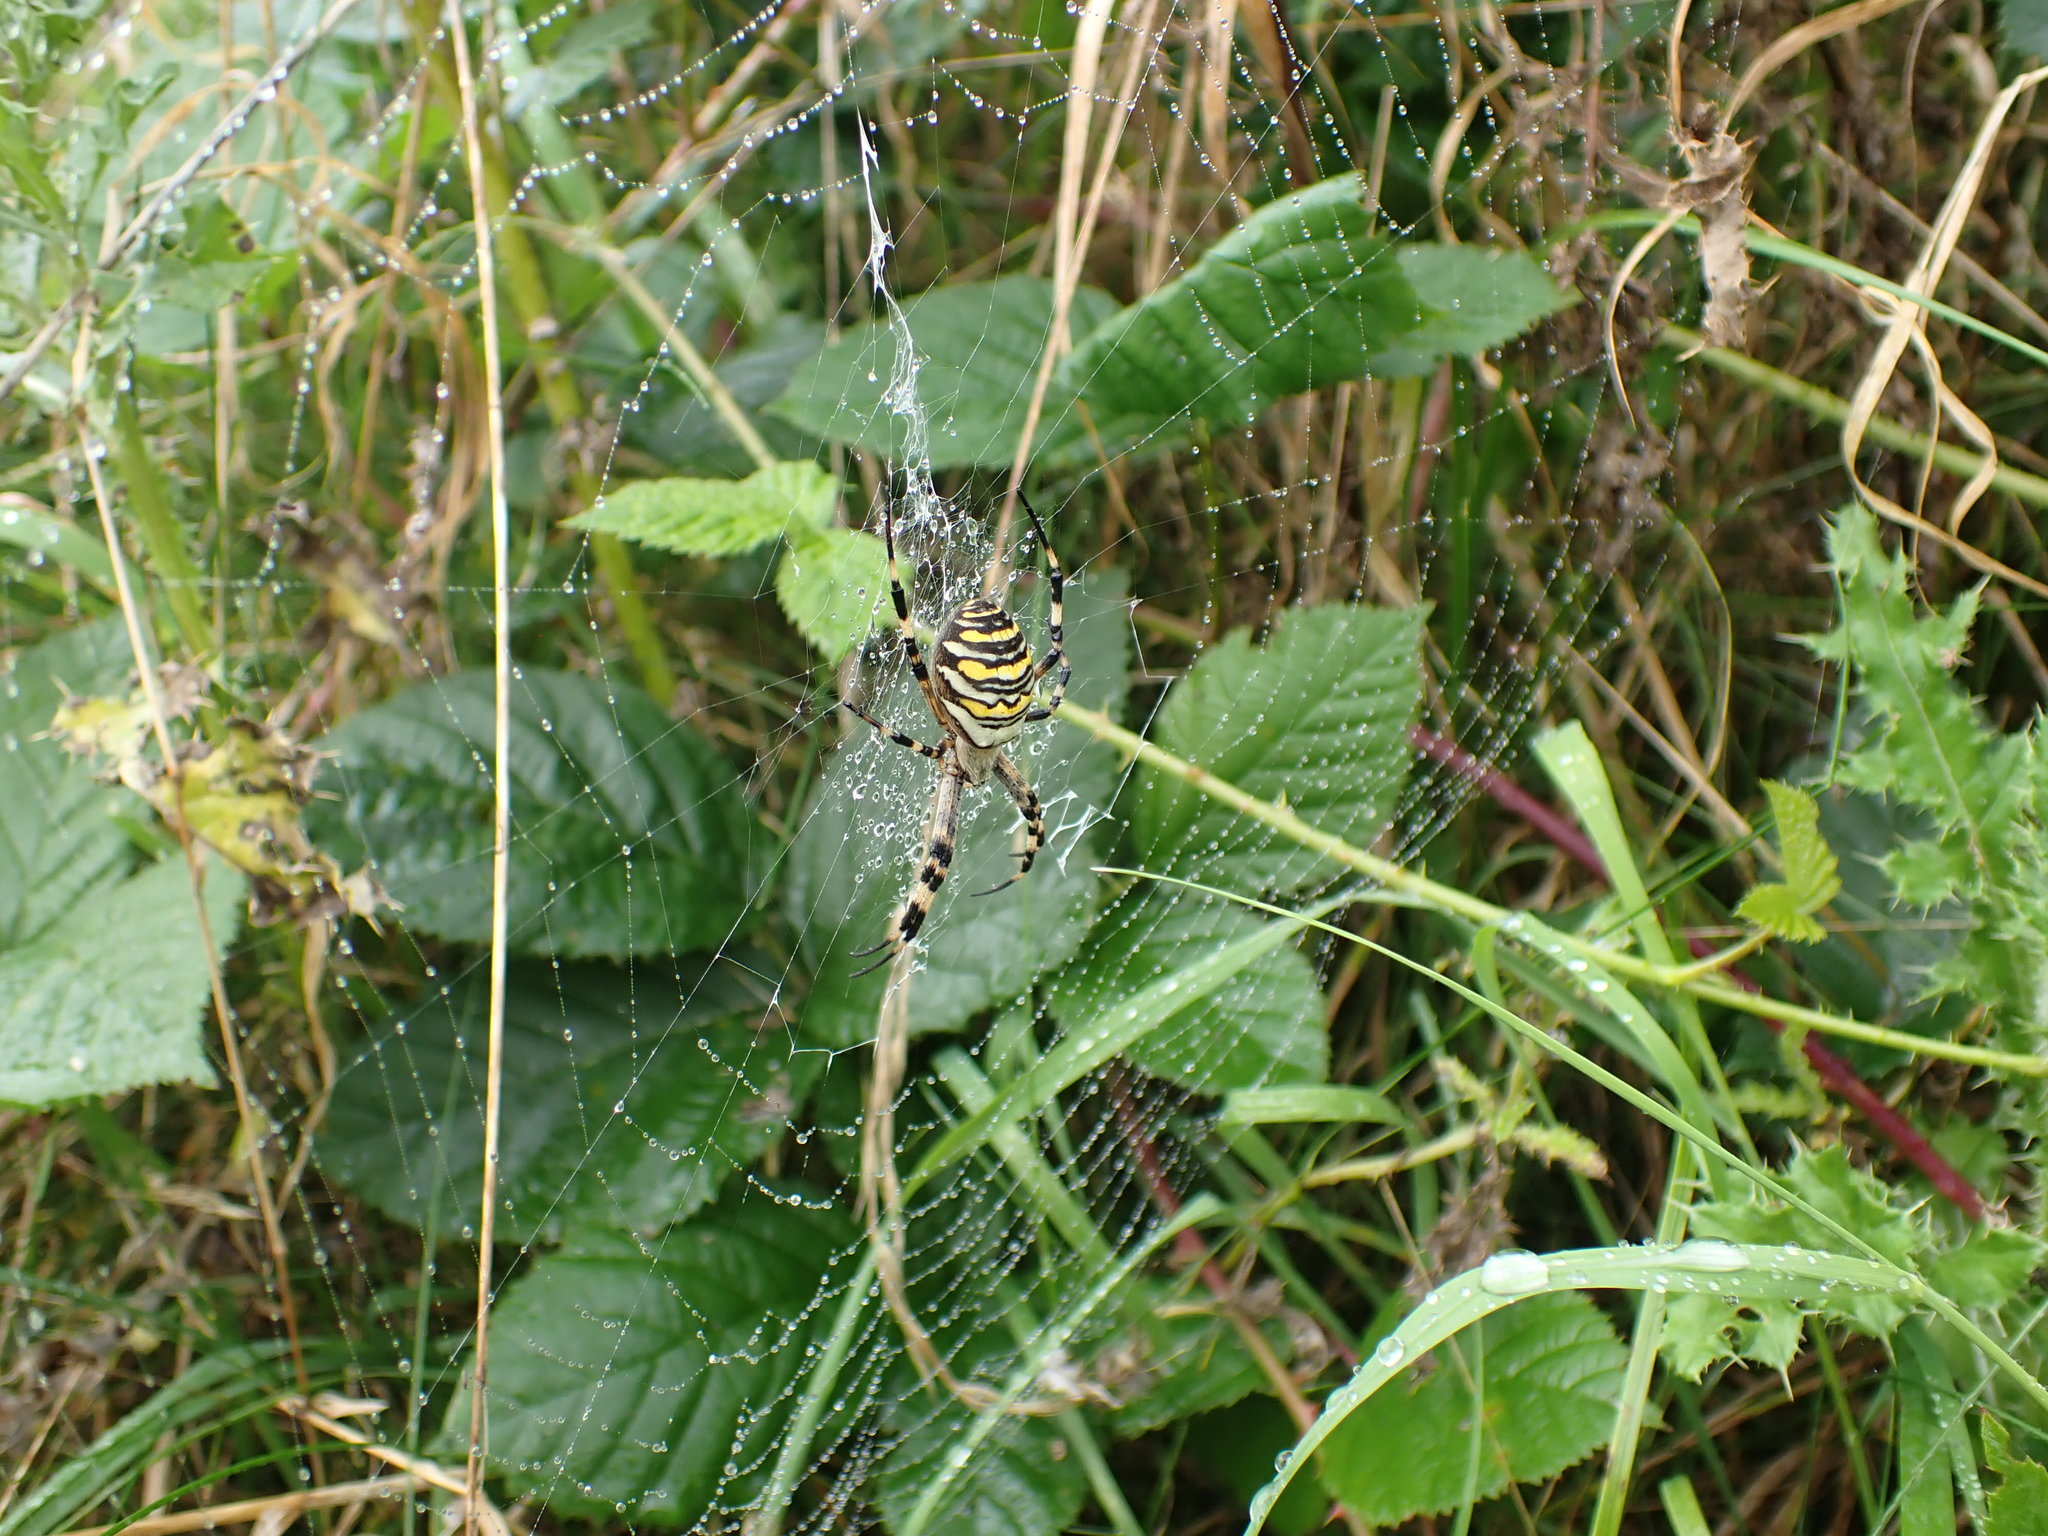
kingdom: Animalia
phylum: Arthropoda
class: Arachnida
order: Araneae
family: Araneidae
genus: Argiope
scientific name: Argiope bruennichi
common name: Wasp spider
